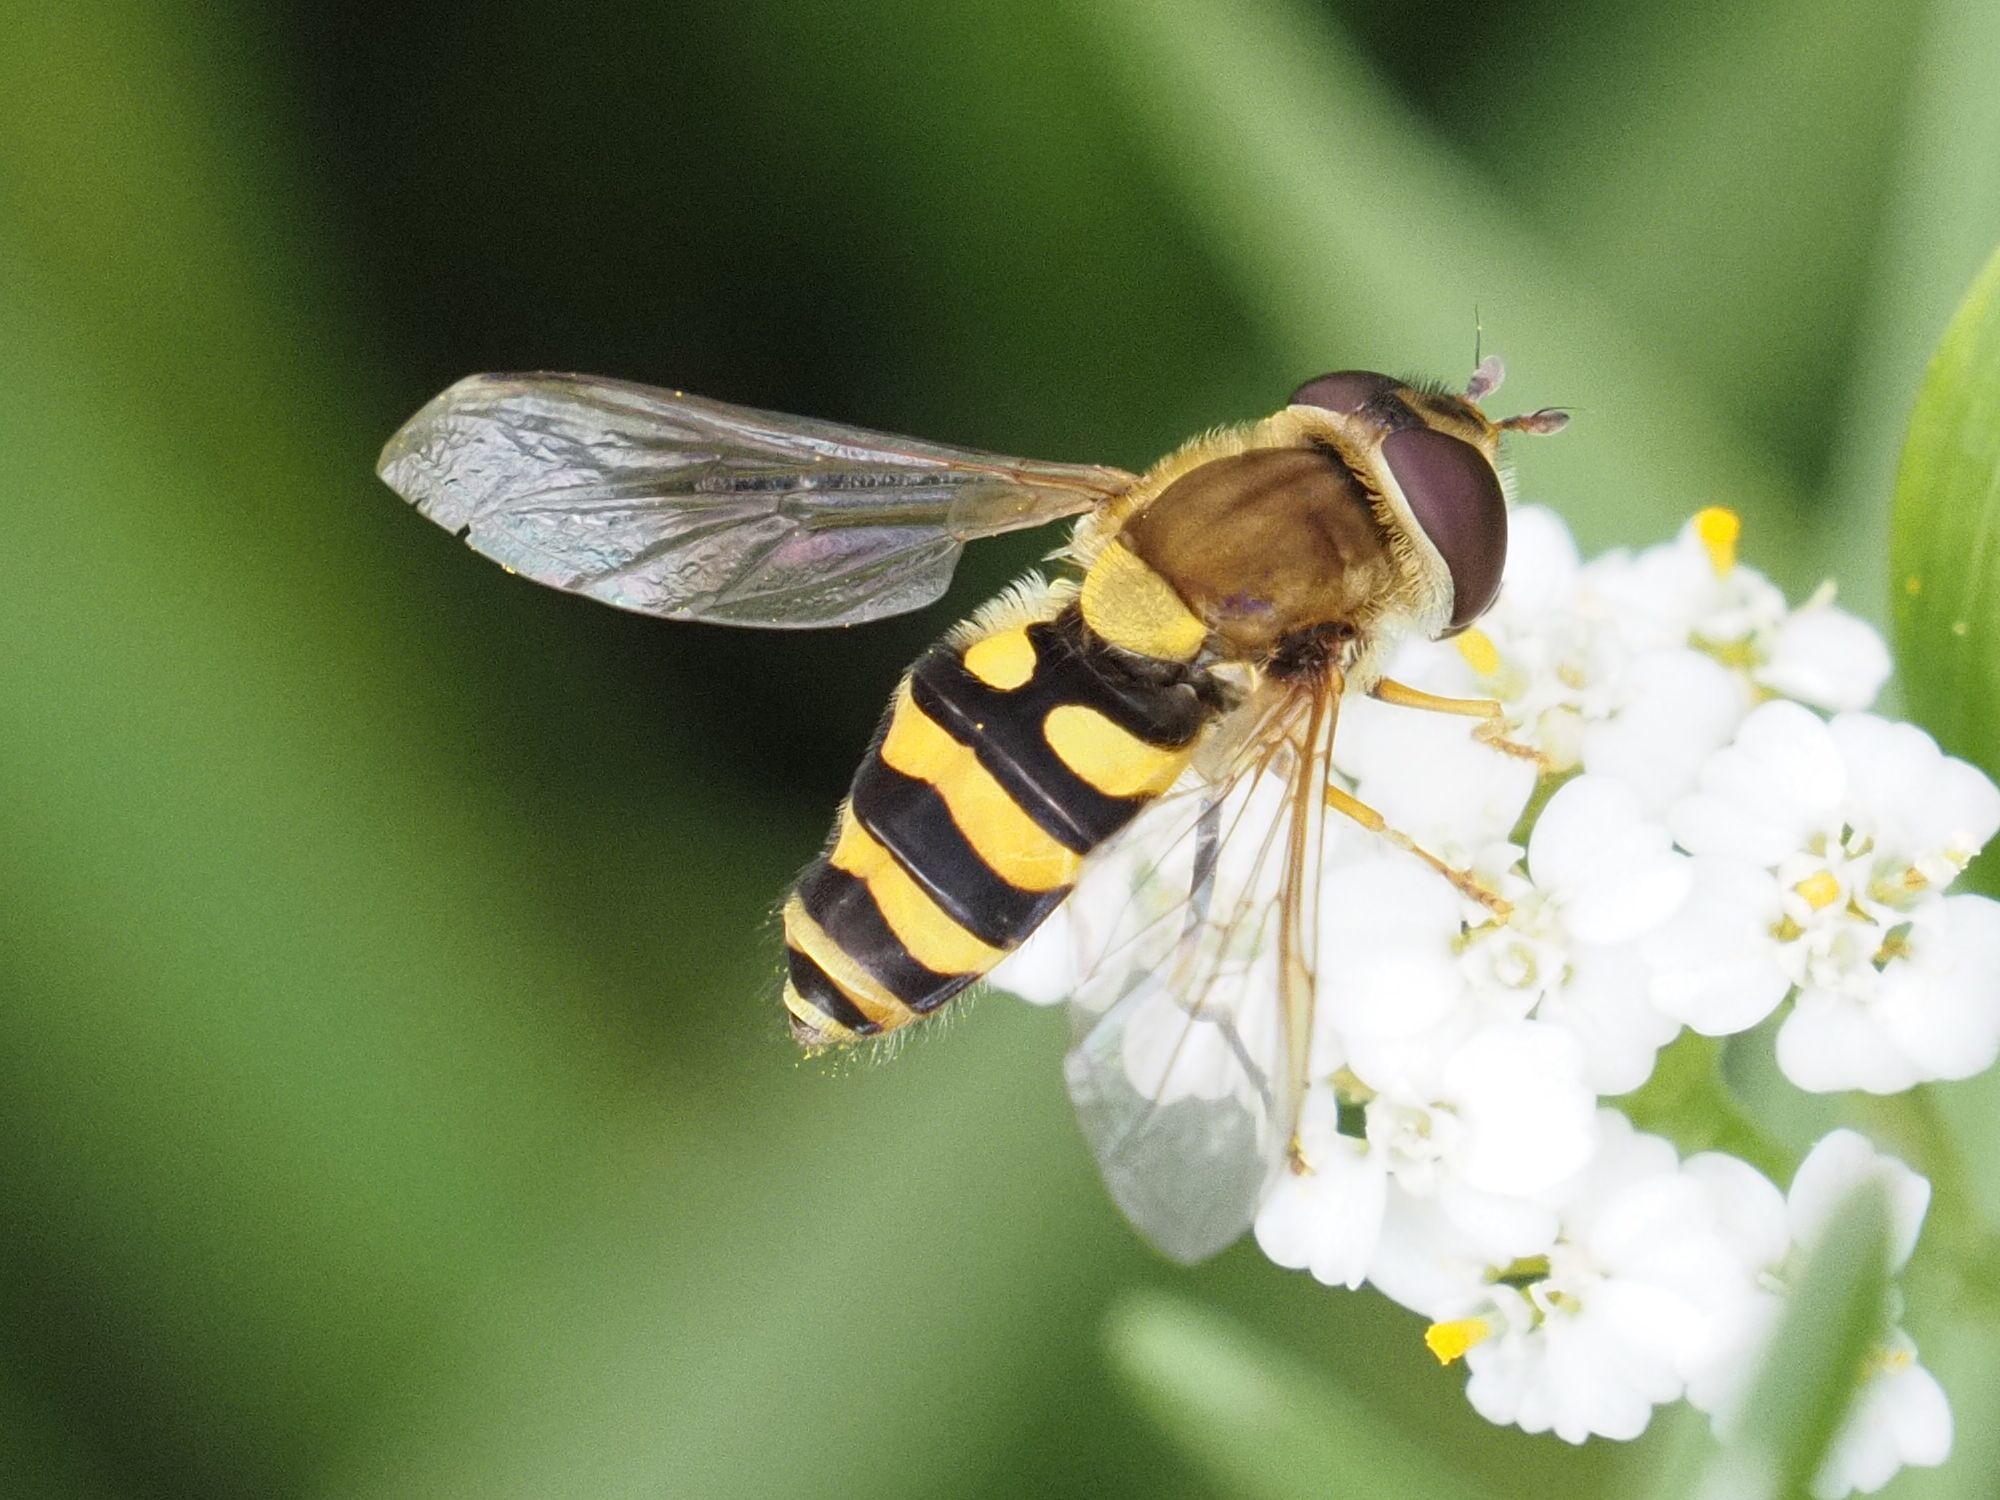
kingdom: Animalia
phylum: Arthropoda
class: Insecta
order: Diptera
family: Syrphidae
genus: Syrphus
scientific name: Syrphus vitripennis
